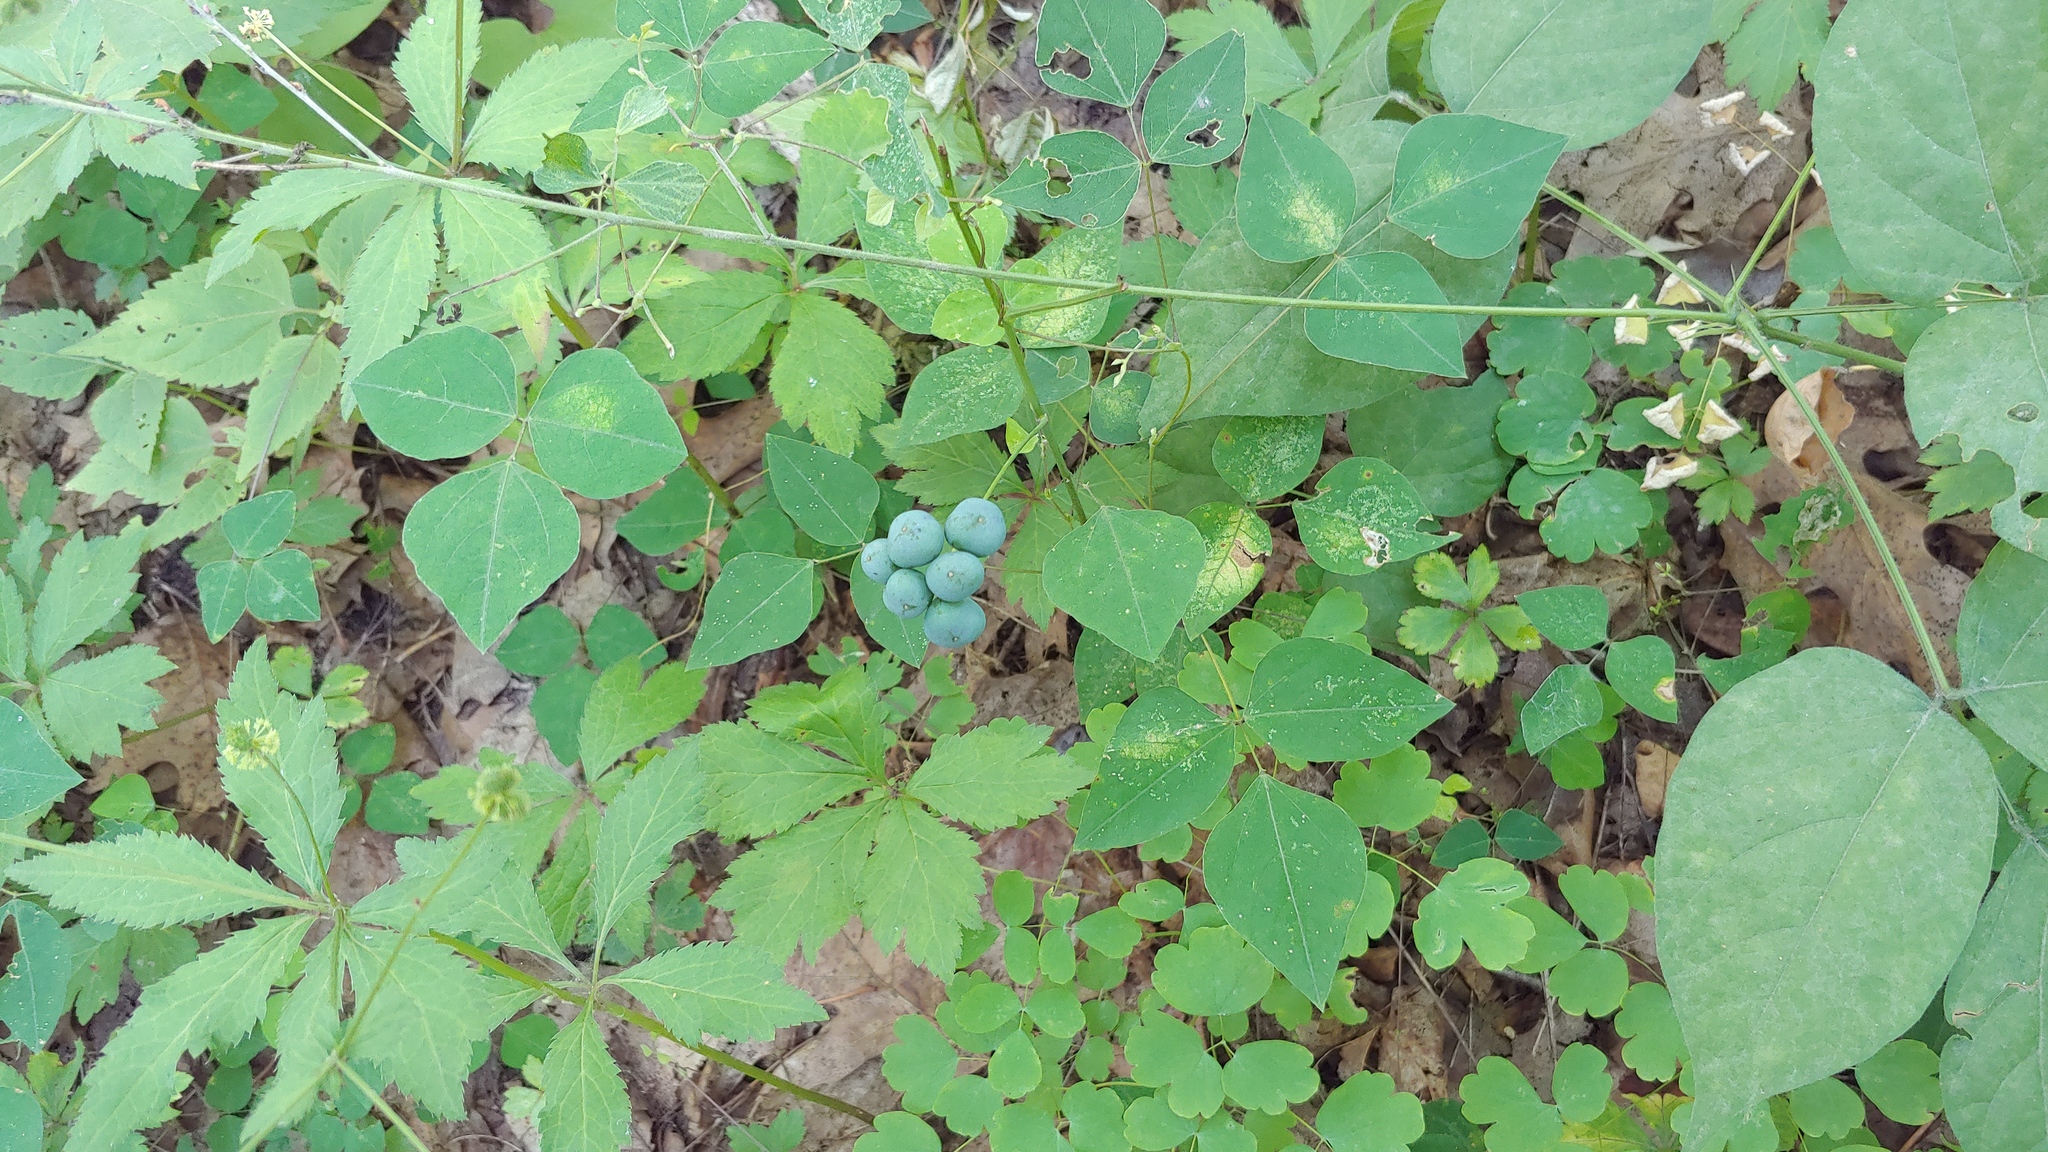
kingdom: Plantae
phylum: Tracheophyta
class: Magnoliopsida
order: Fabales
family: Fabaceae
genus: Amphicarpaea
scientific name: Amphicarpaea bracteata
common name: American hog peanut
